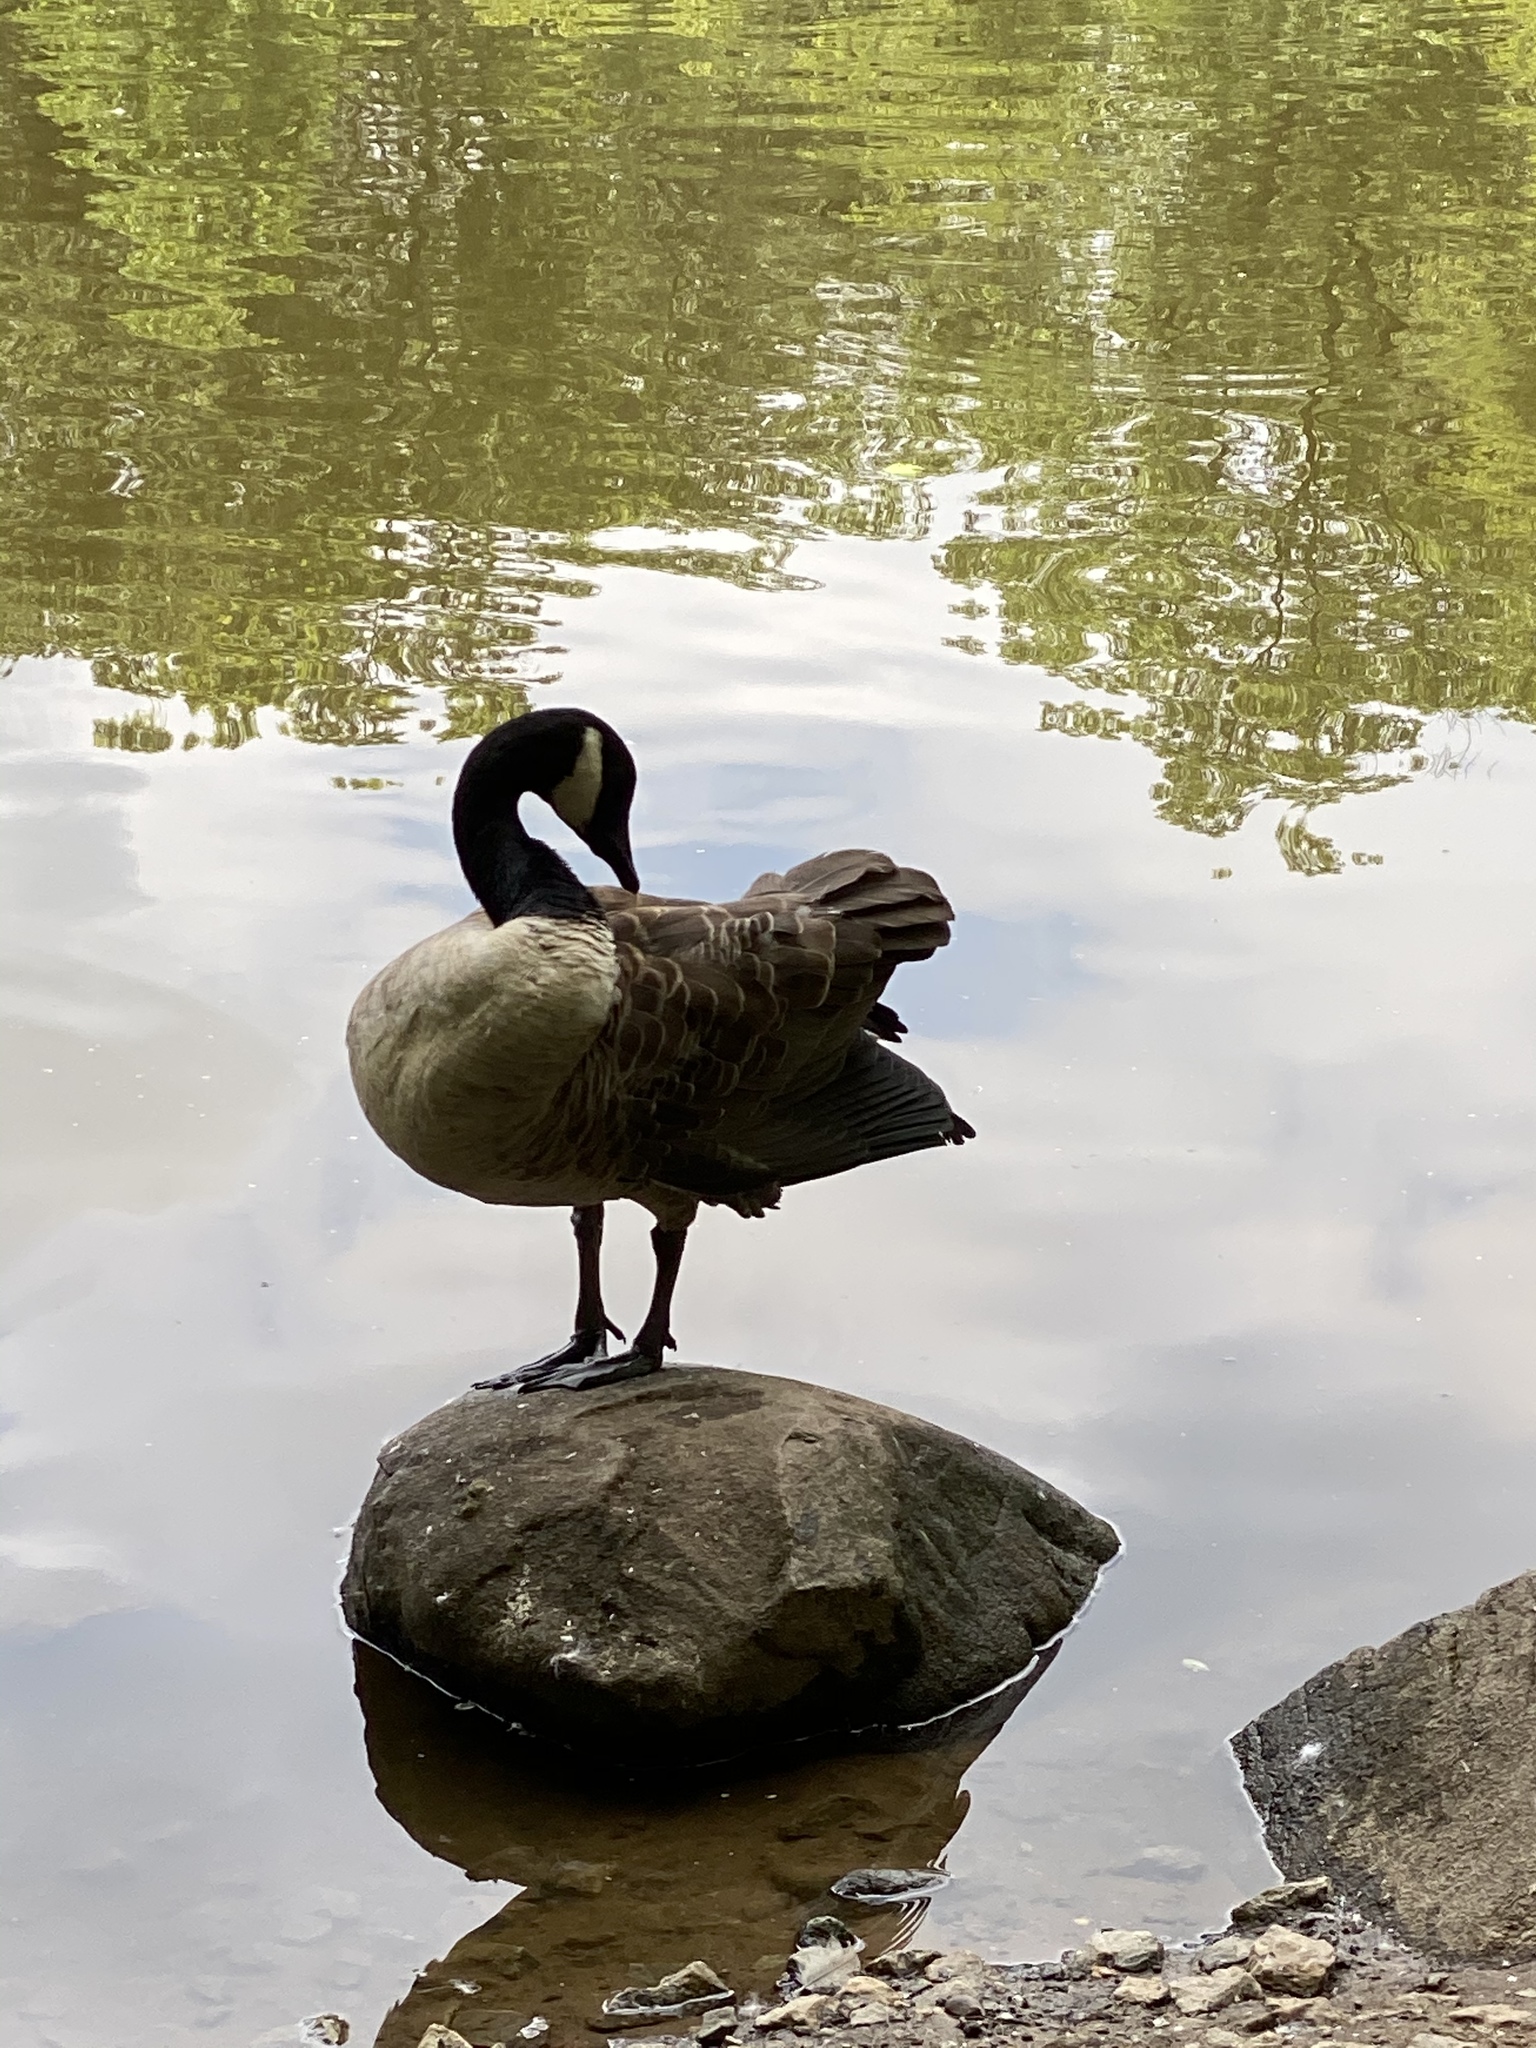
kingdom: Animalia
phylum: Chordata
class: Aves
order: Anseriformes
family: Anatidae
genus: Branta
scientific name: Branta canadensis
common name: Canada goose
